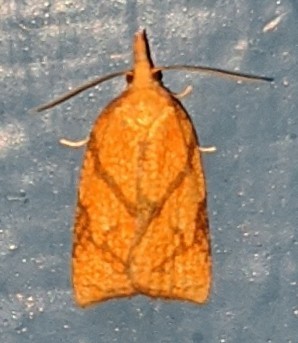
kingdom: Animalia
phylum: Arthropoda
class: Insecta
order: Lepidoptera
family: Tortricidae
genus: Cenopis
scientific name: Cenopis reticulatana
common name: Reticulated fruitworm moth
